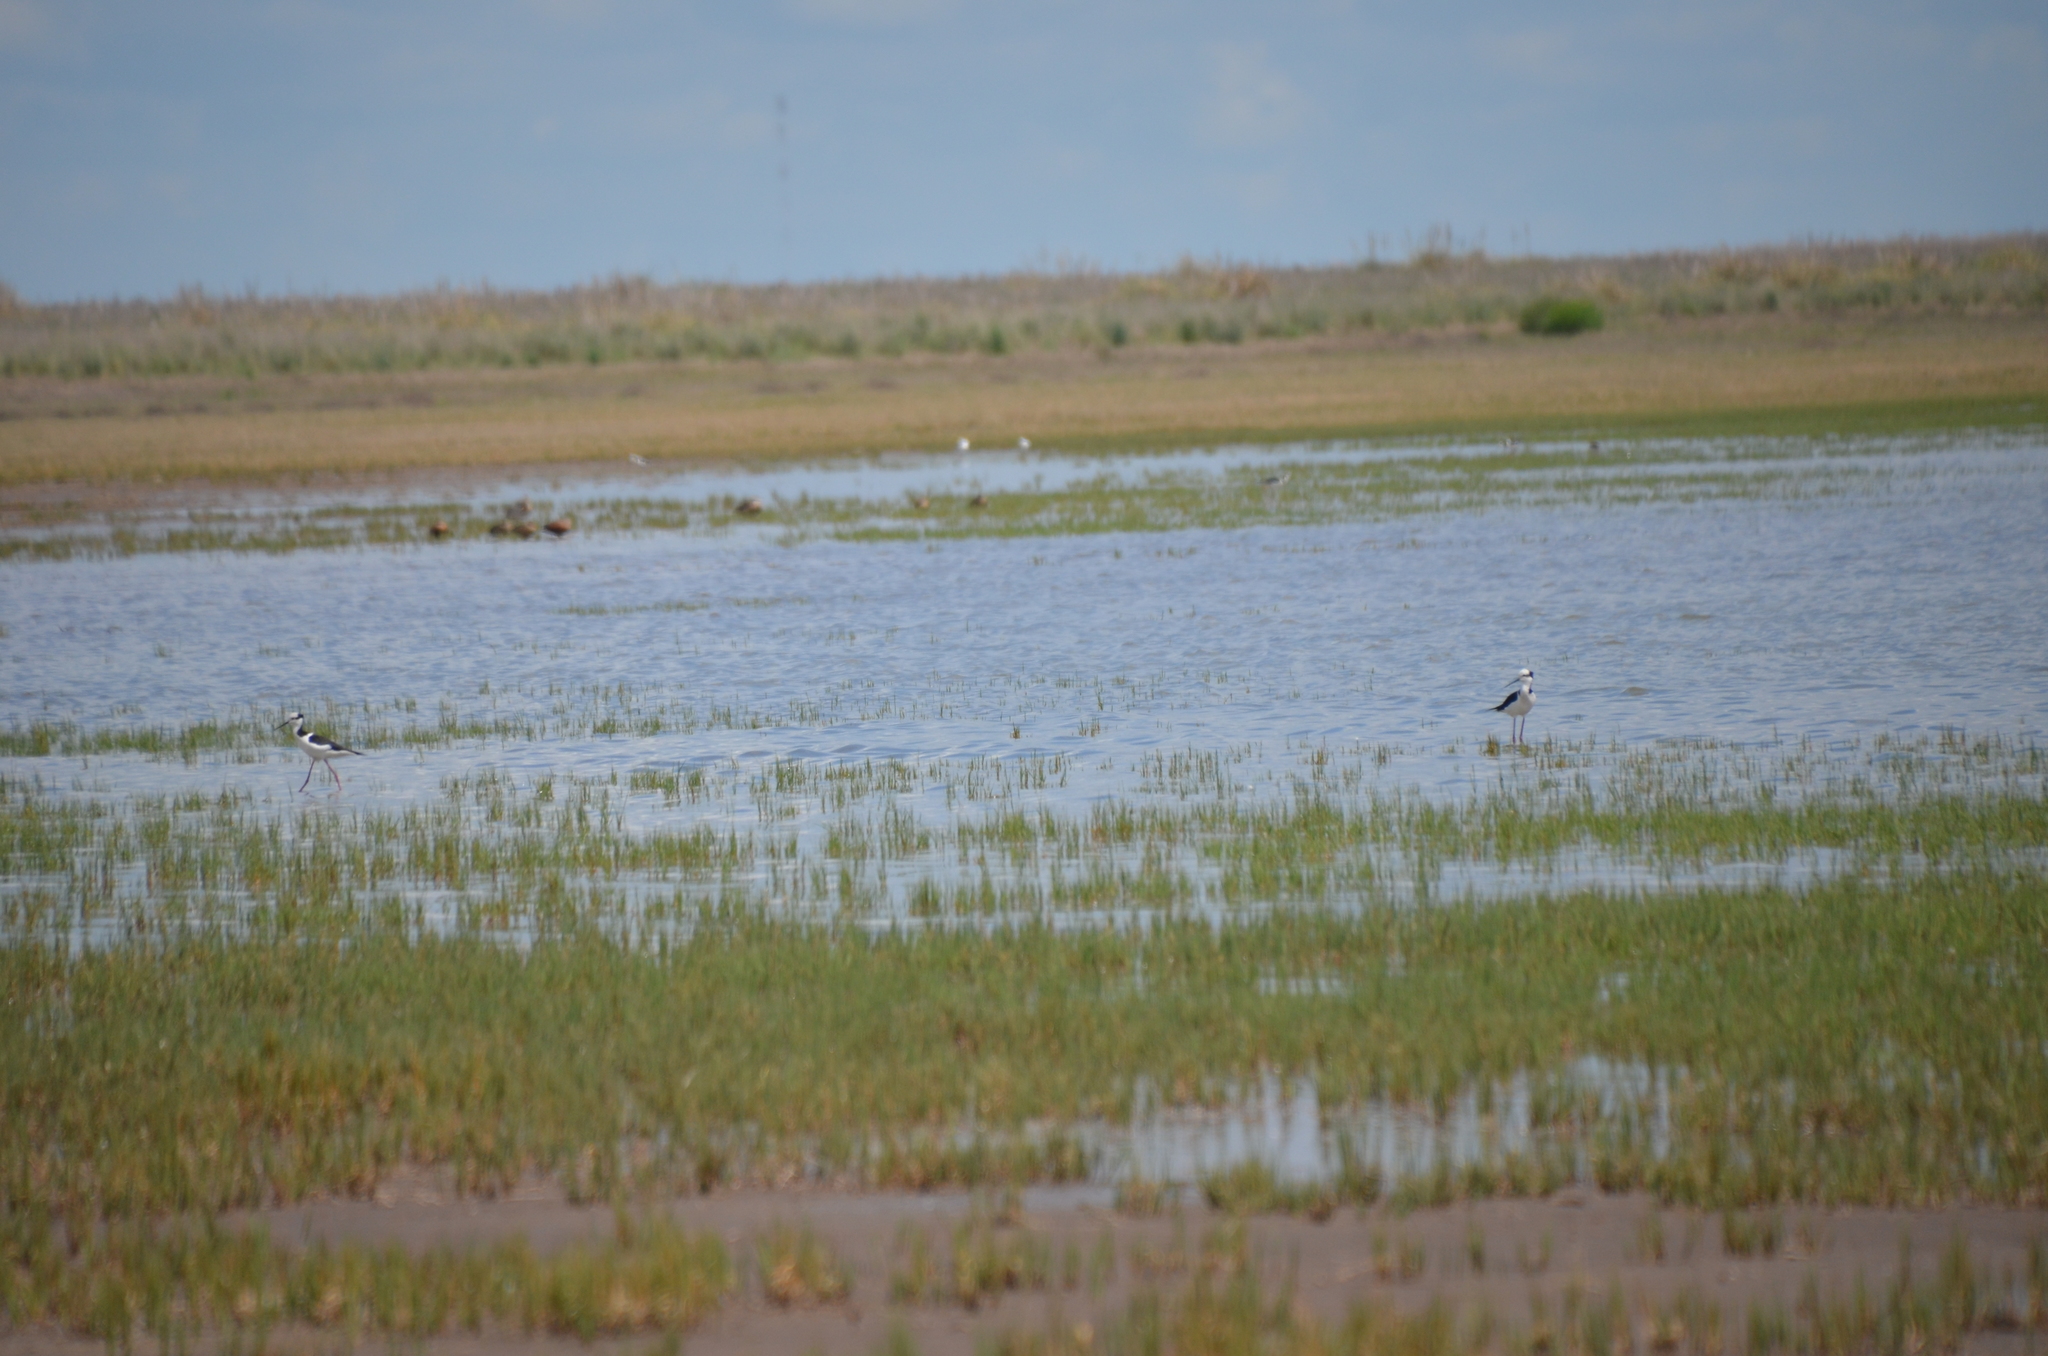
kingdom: Animalia
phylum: Chordata
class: Aves
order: Charadriiformes
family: Recurvirostridae
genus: Himantopus
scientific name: Himantopus mexicanus
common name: Black-necked stilt
